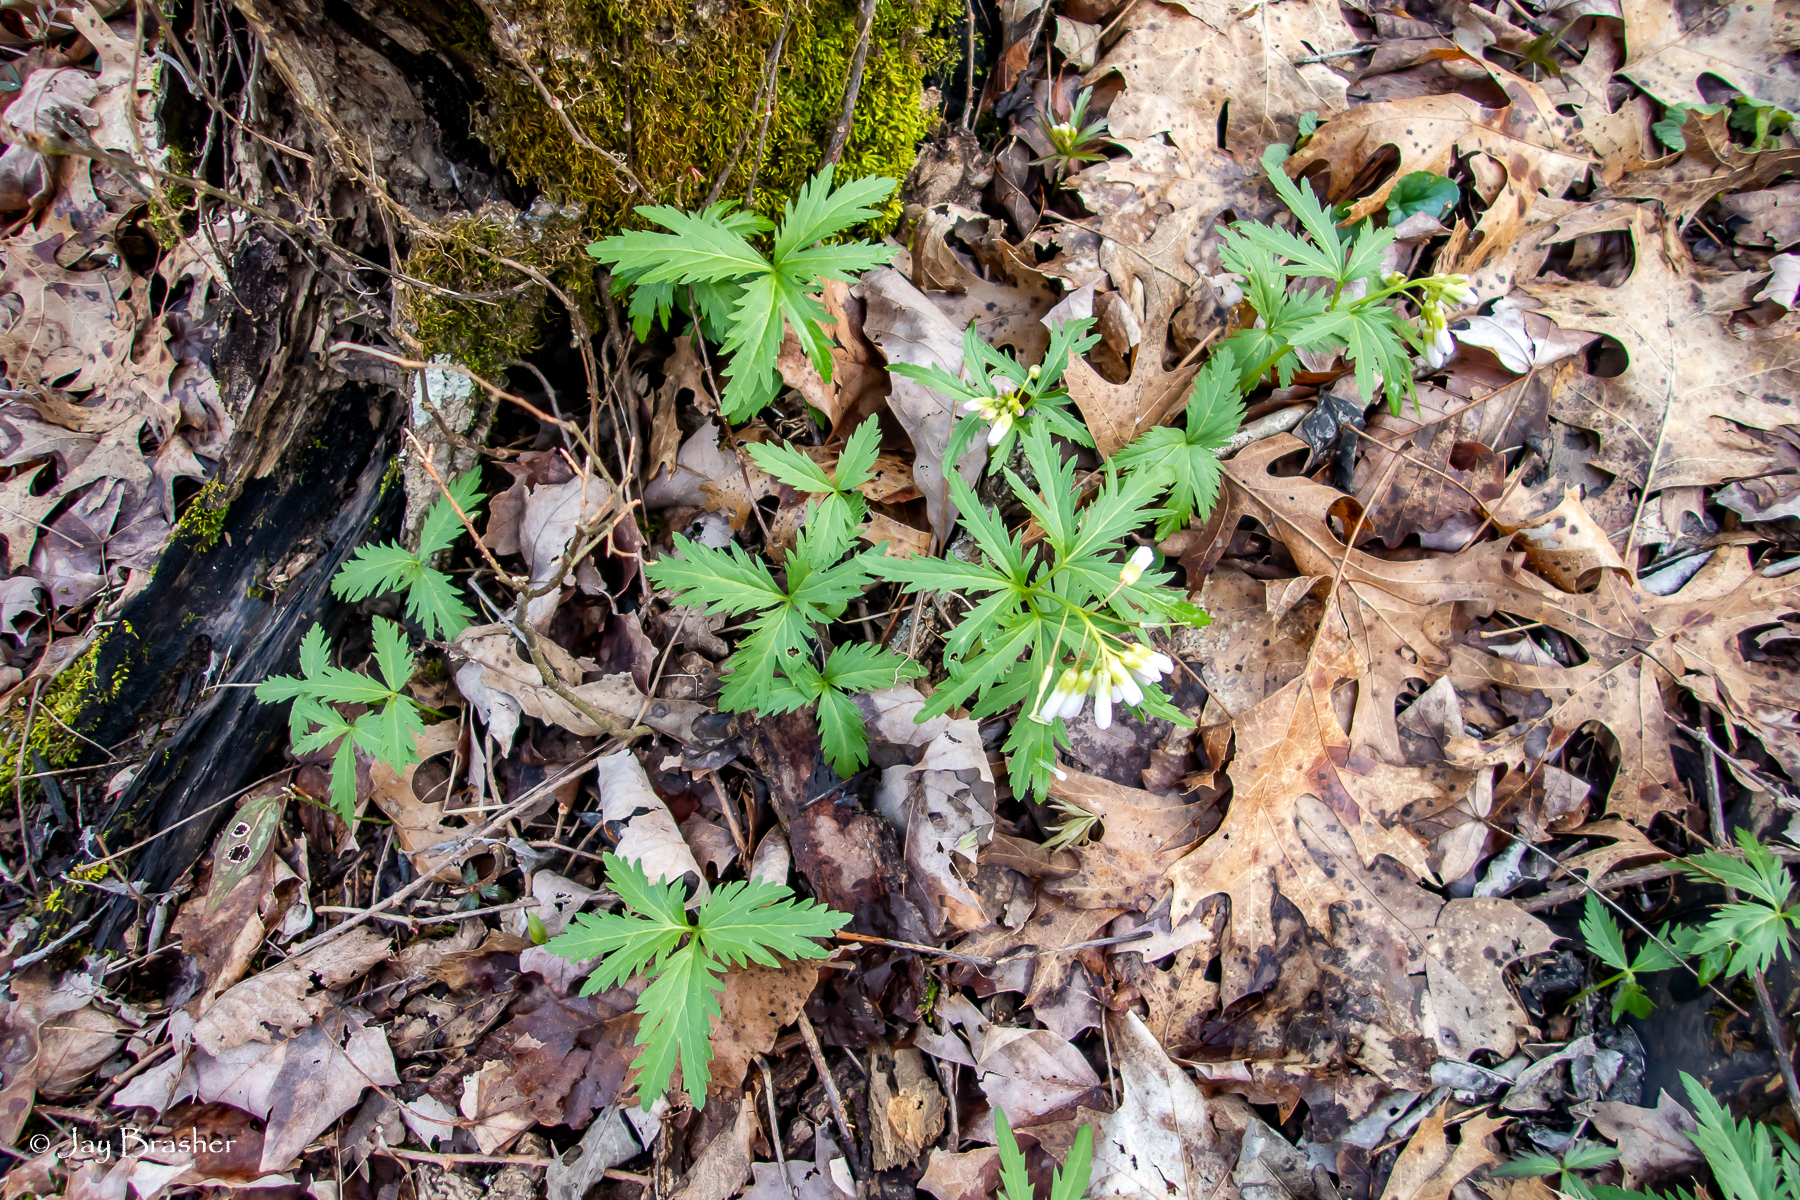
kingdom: Plantae
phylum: Tracheophyta
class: Magnoliopsida
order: Brassicales
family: Brassicaceae
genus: Cardamine
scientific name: Cardamine concatenata
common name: Cut-leaf toothcup
